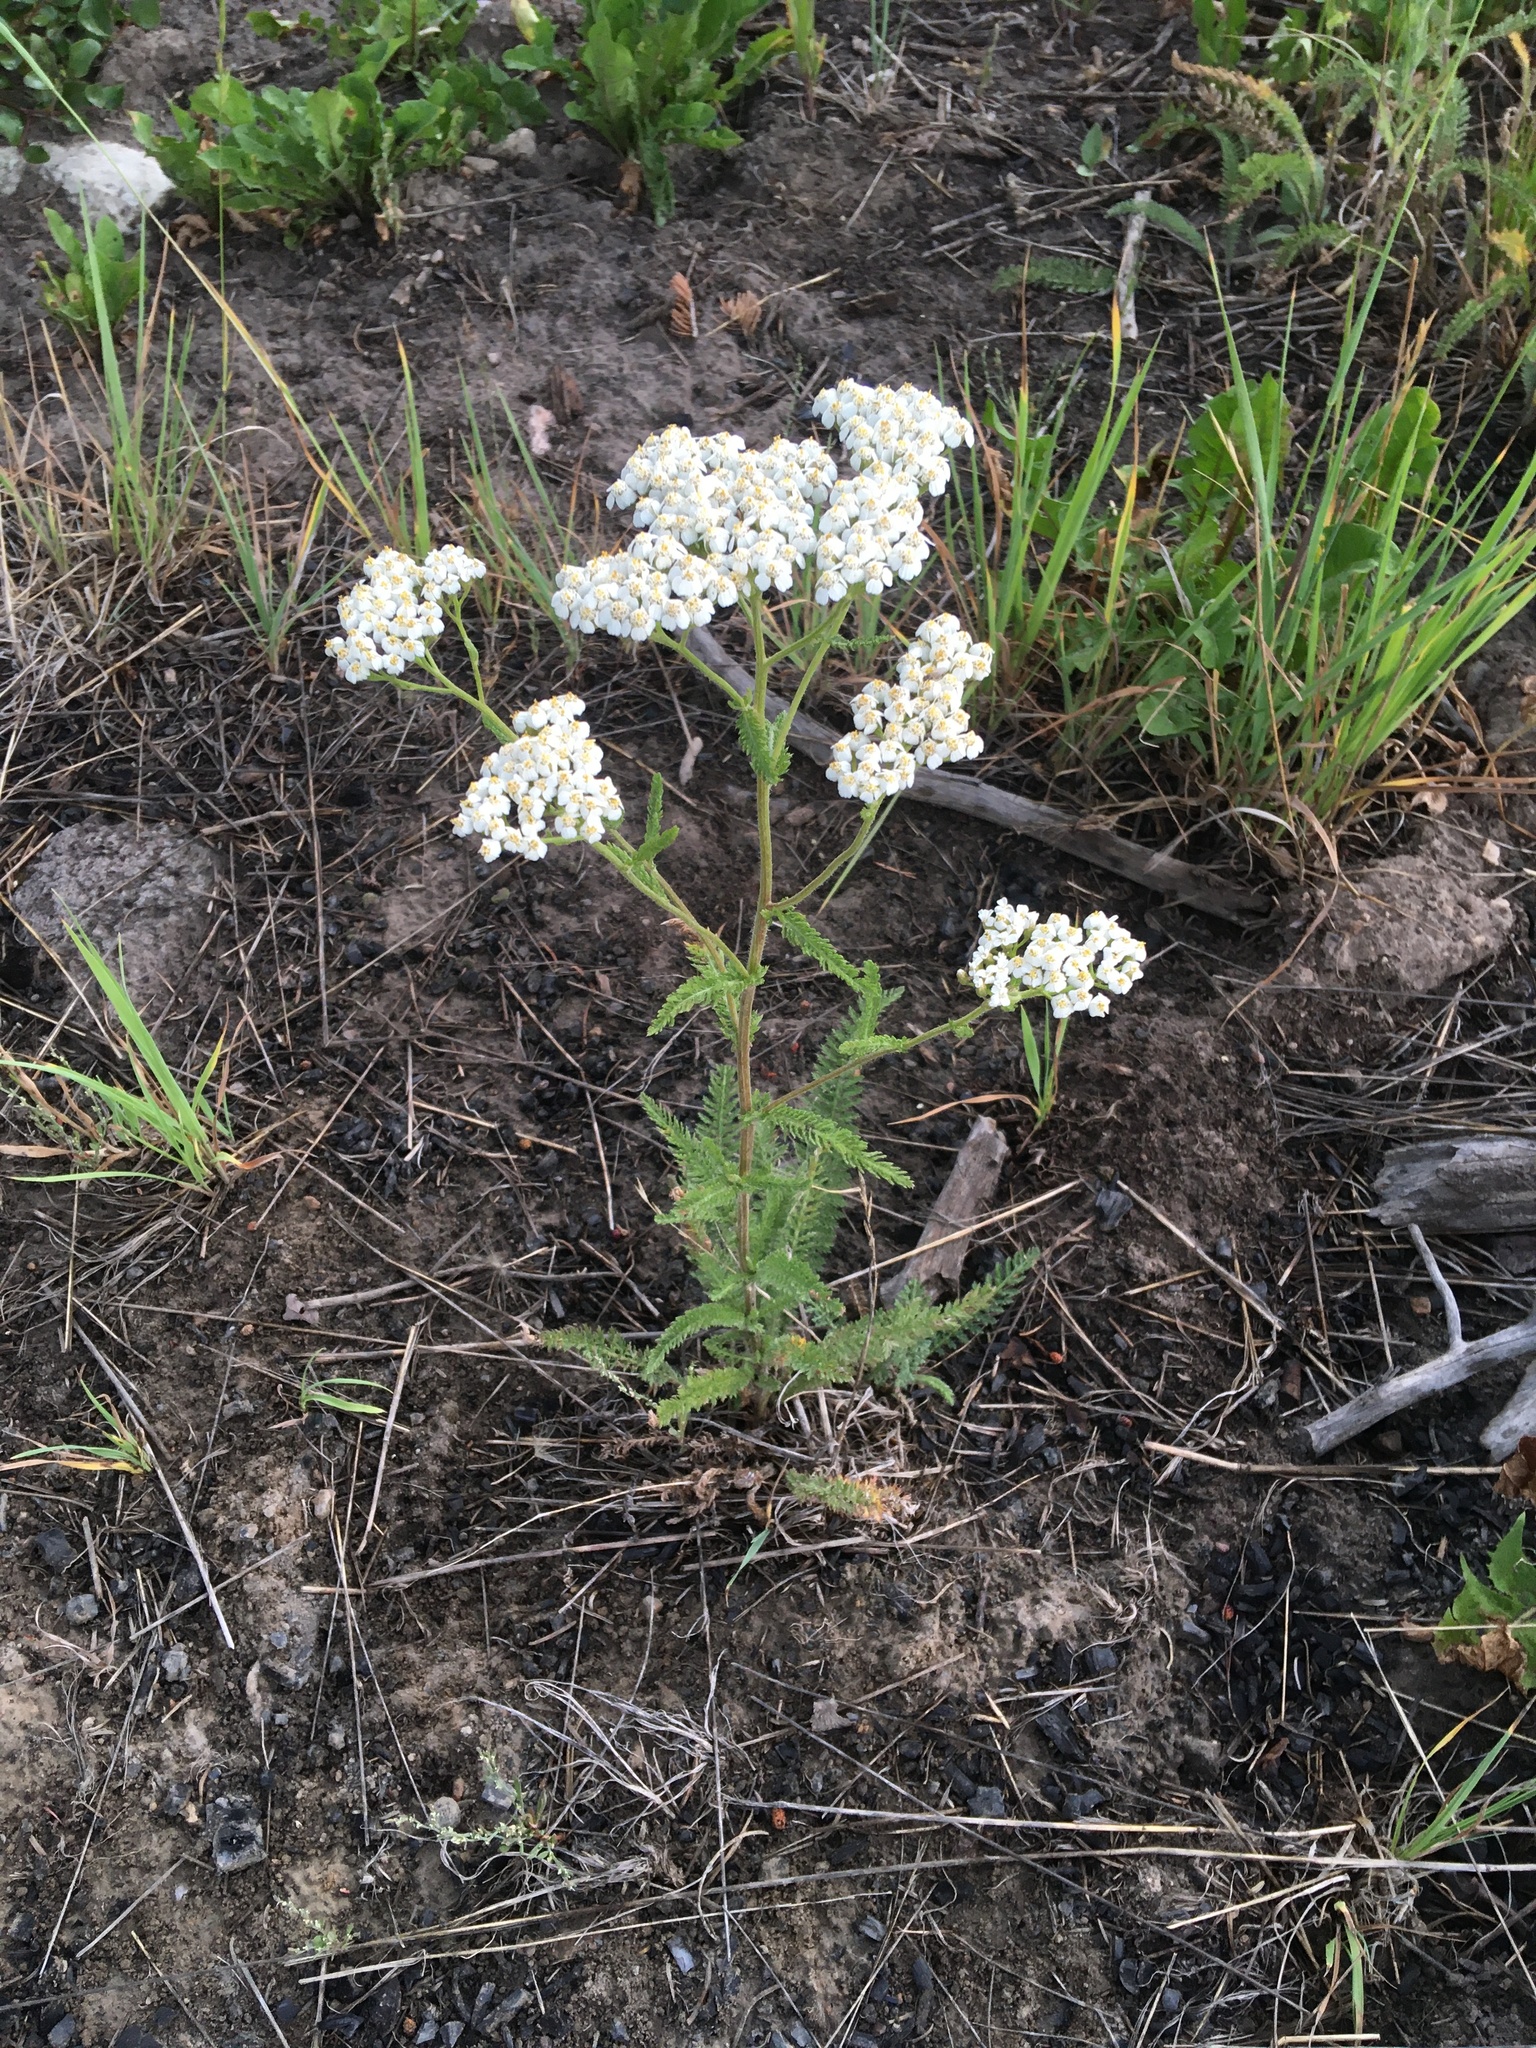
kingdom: Plantae
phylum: Tracheophyta
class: Magnoliopsida
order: Asterales
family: Asteraceae
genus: Achillea
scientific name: Achillea millefolium
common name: Yarrow
